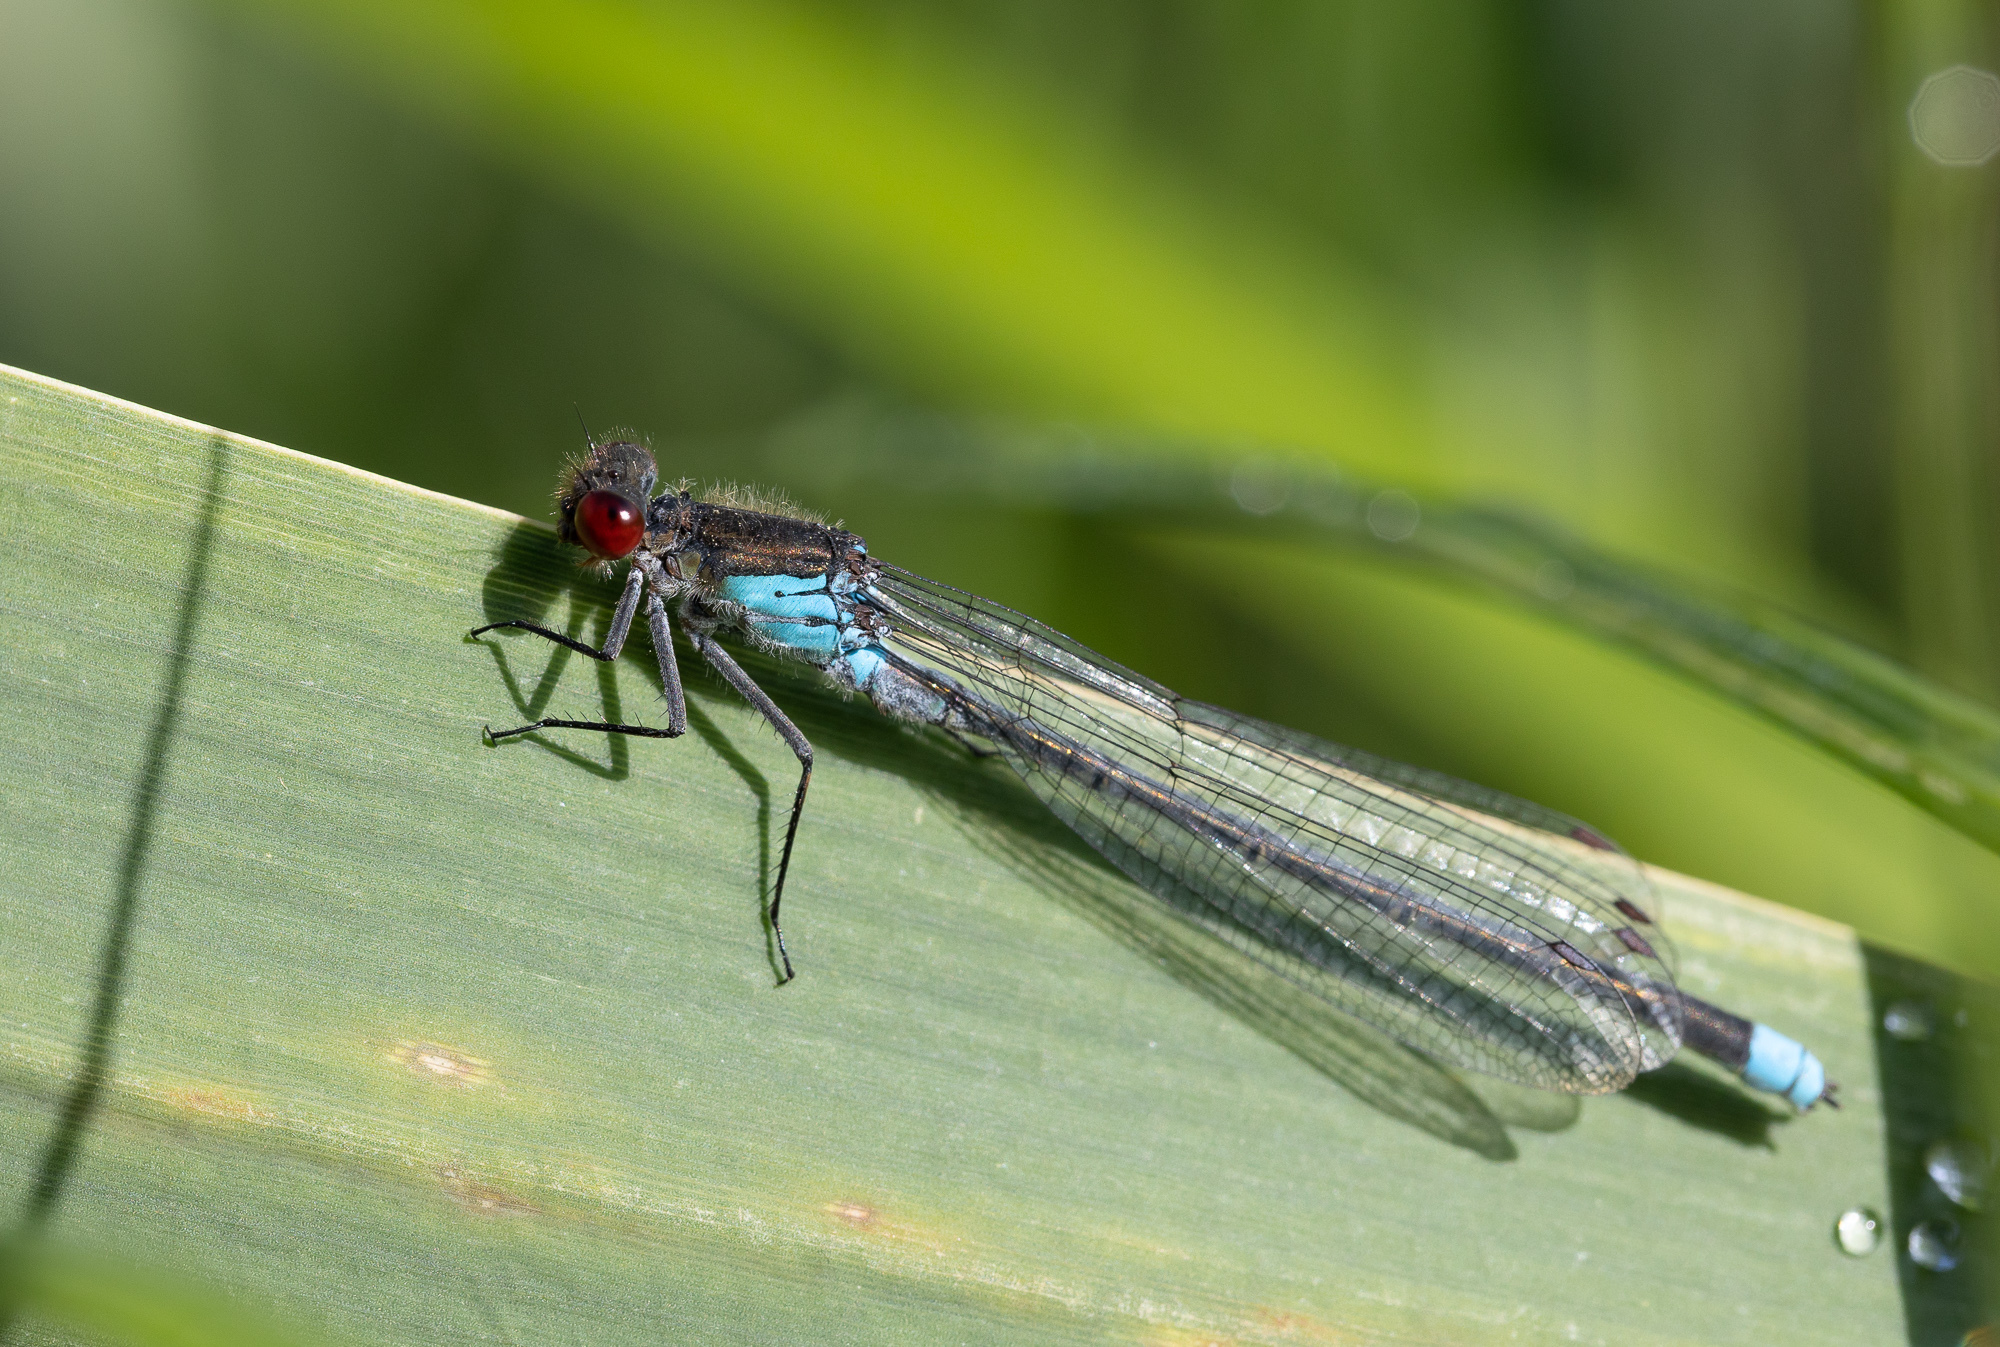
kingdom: Animalia
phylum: Arthropoda
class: Insecta
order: Odonata
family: Coenagrionidae
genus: Erythromma
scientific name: Erythromma najas
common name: Red-eyed damselfly
